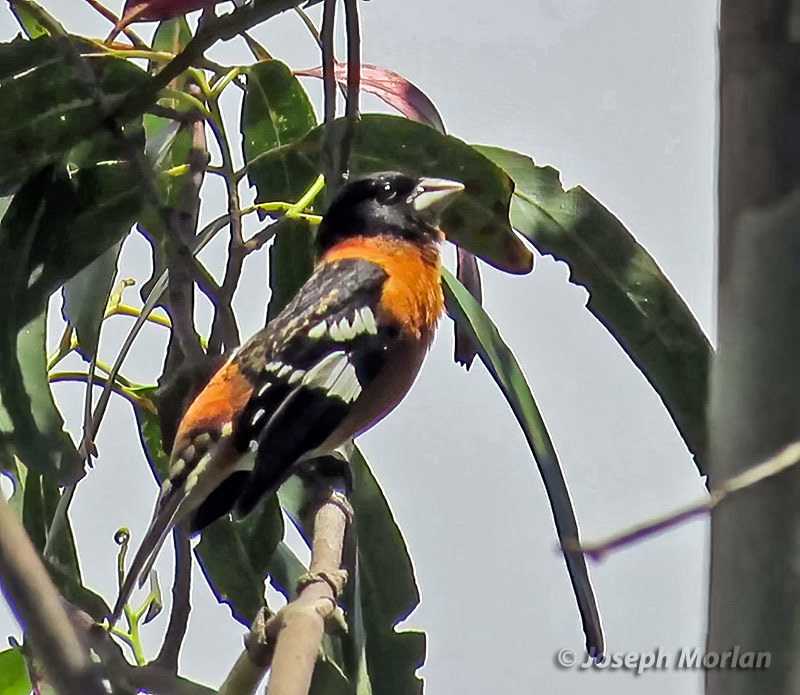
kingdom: Animalia
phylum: Chordata
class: Aves
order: Passeriformes
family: Cardinalidae
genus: Pheucticus
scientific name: Pheucticus melanocephalus
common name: Black-headed grosbeak
